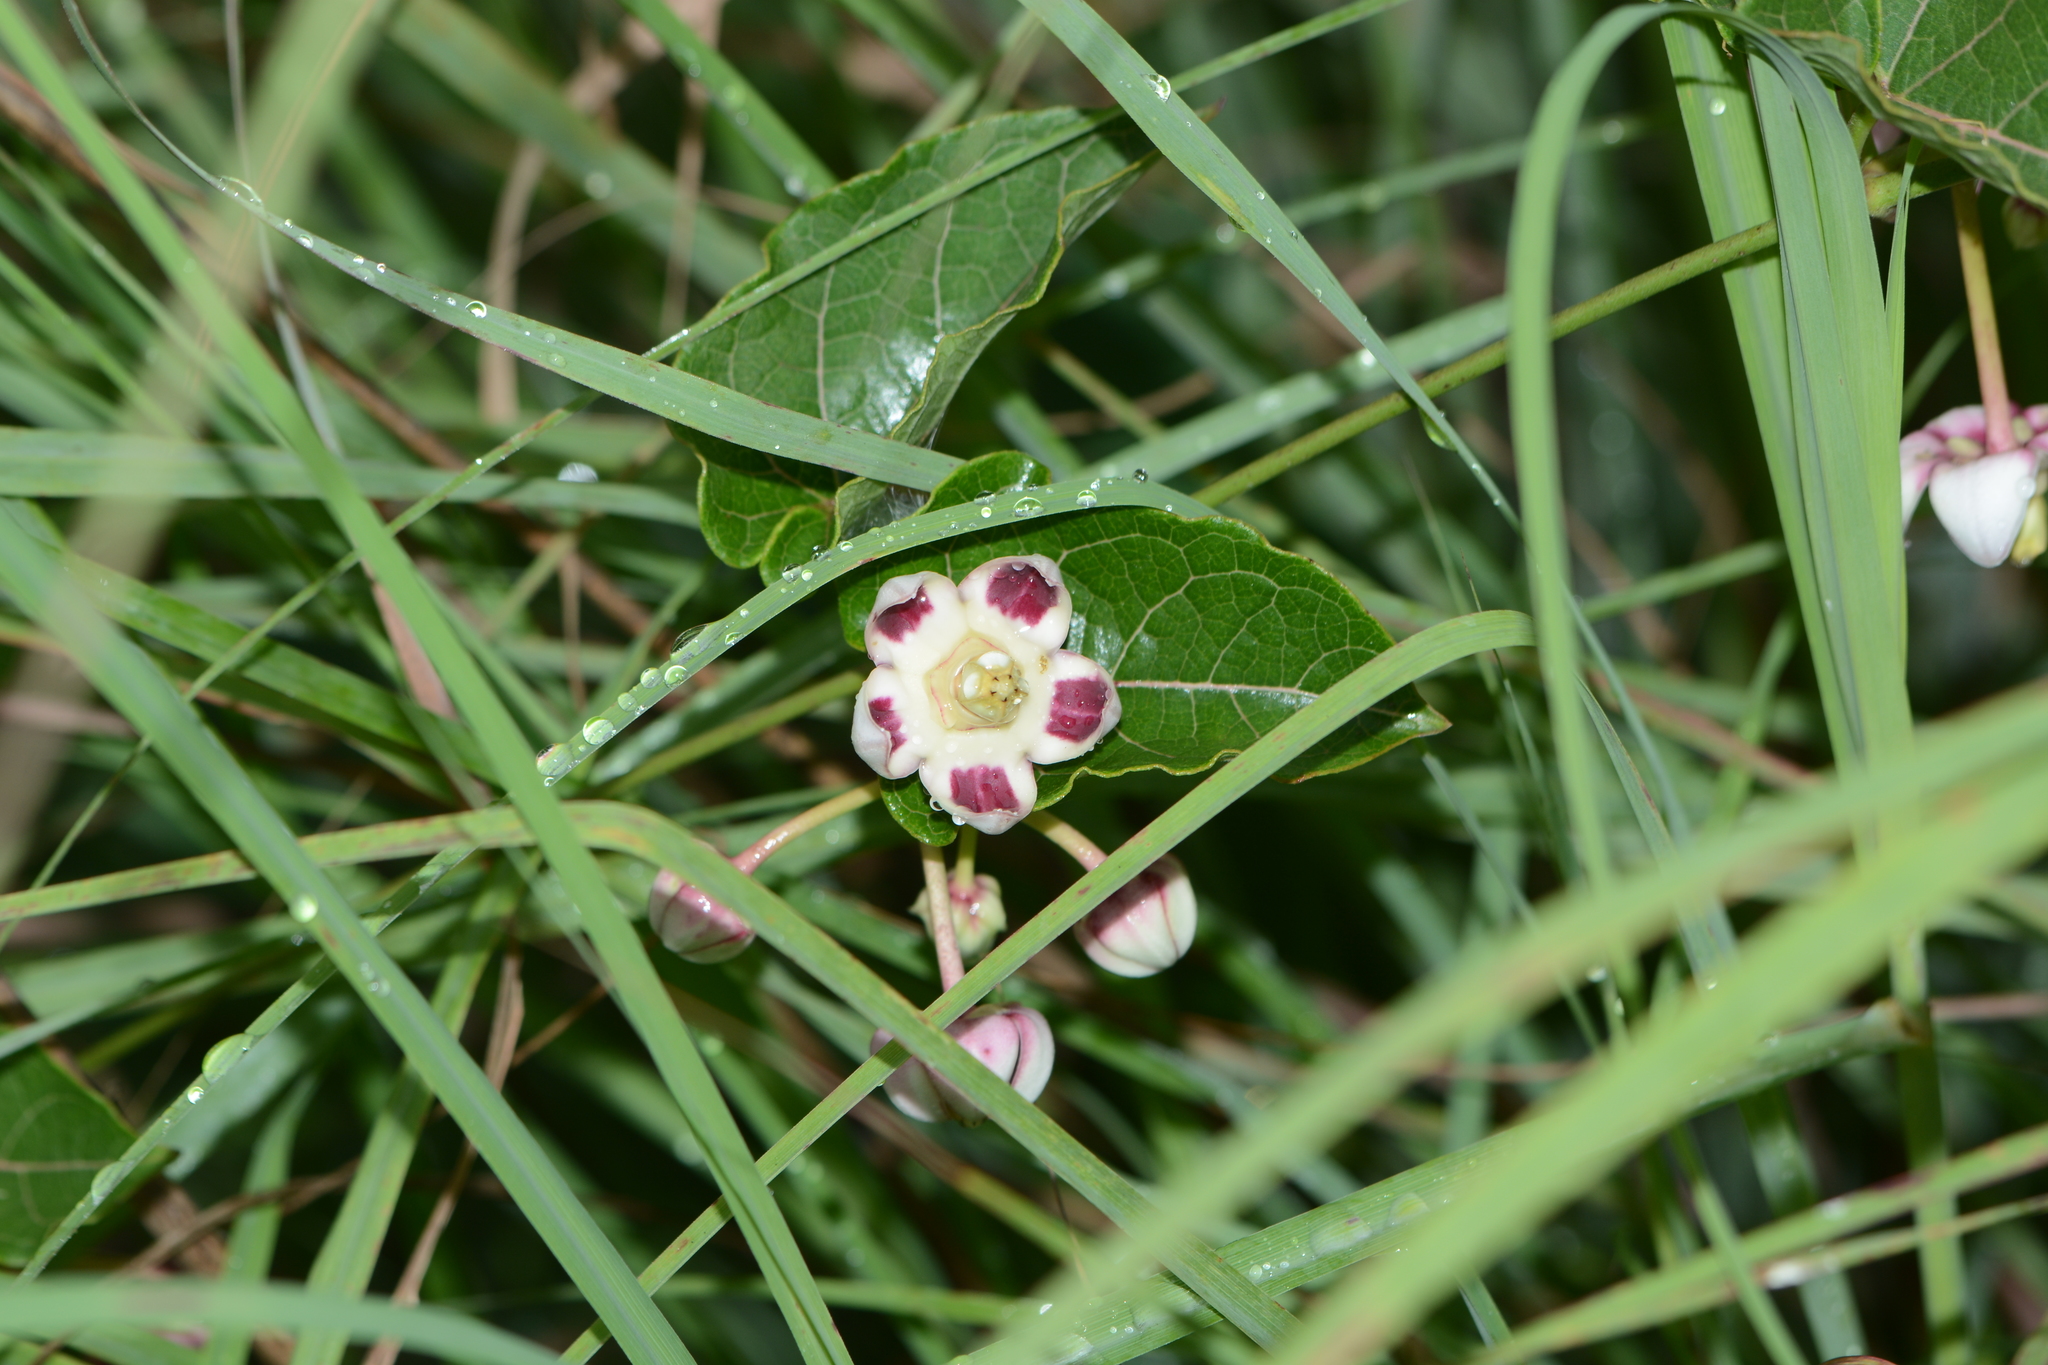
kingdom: Plantae
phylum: Tracheophyta
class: Magnoliopsida
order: Gentianales
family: Apocynaceae
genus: Cynanchum
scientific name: Cynanchum annularium
